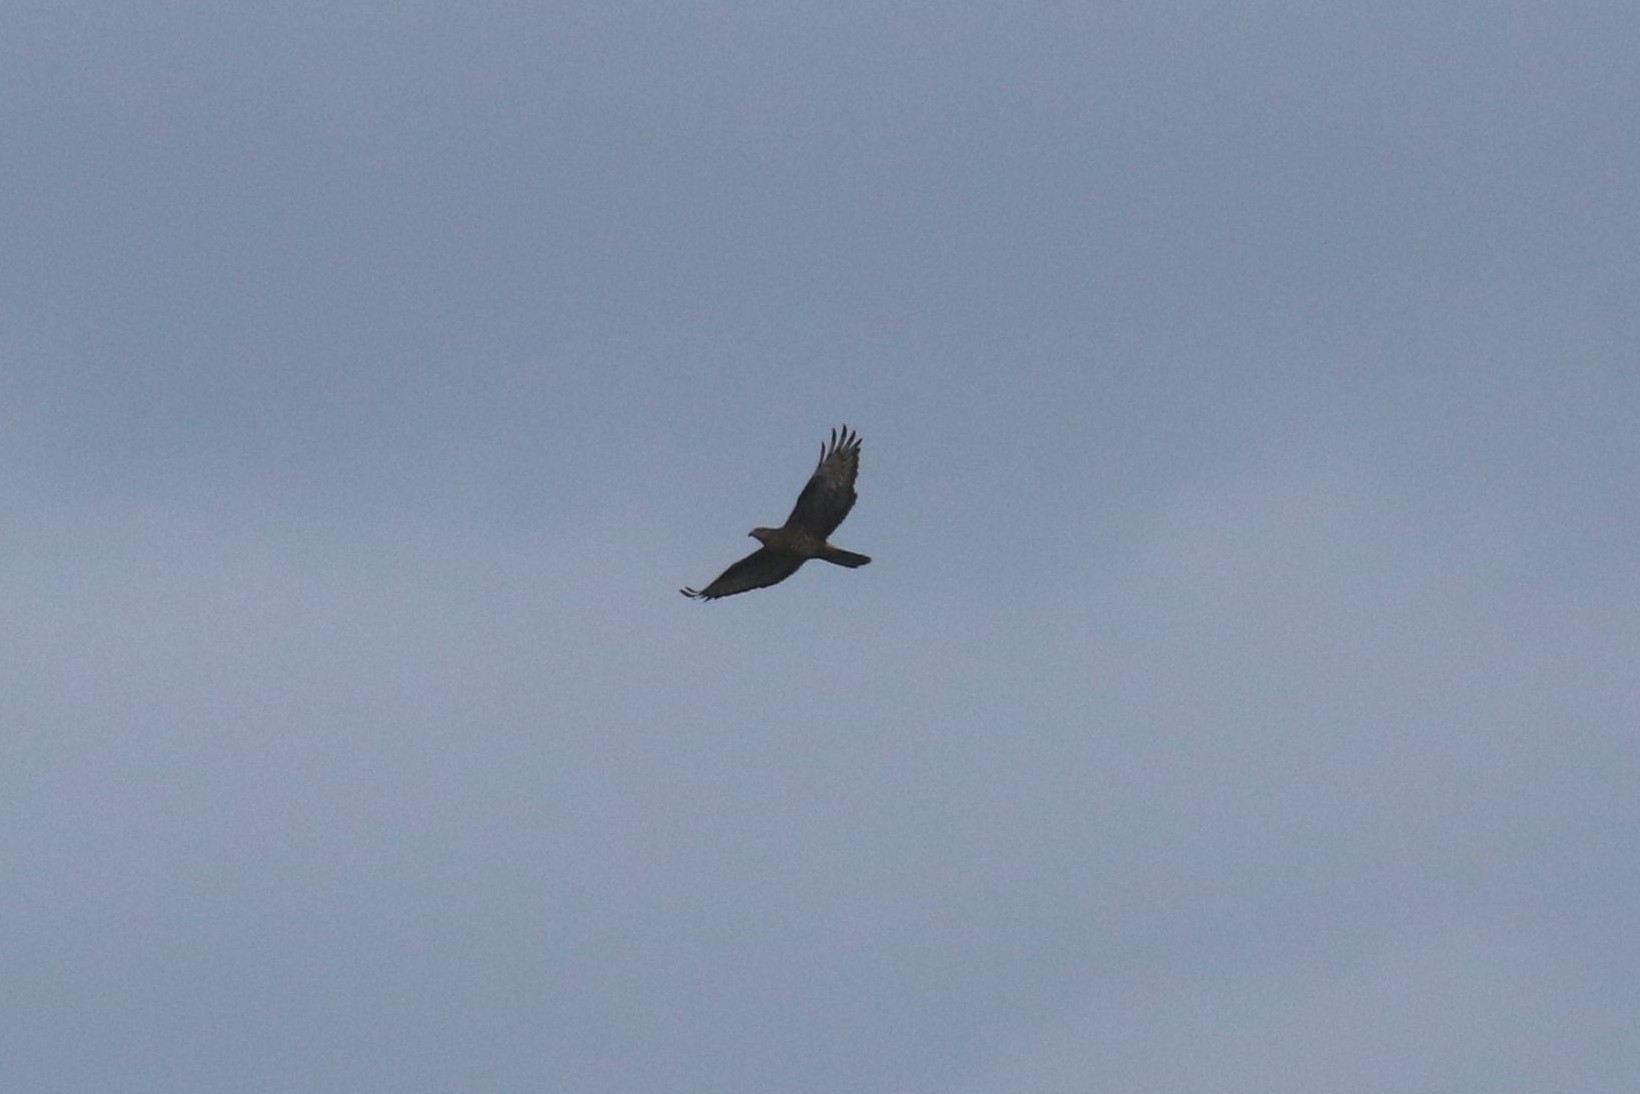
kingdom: Animalia
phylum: Chordata
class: Aves
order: Accipitriformes
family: Accipitridae
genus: Pernis
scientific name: Pernis apivorus
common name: European honey buzzard
